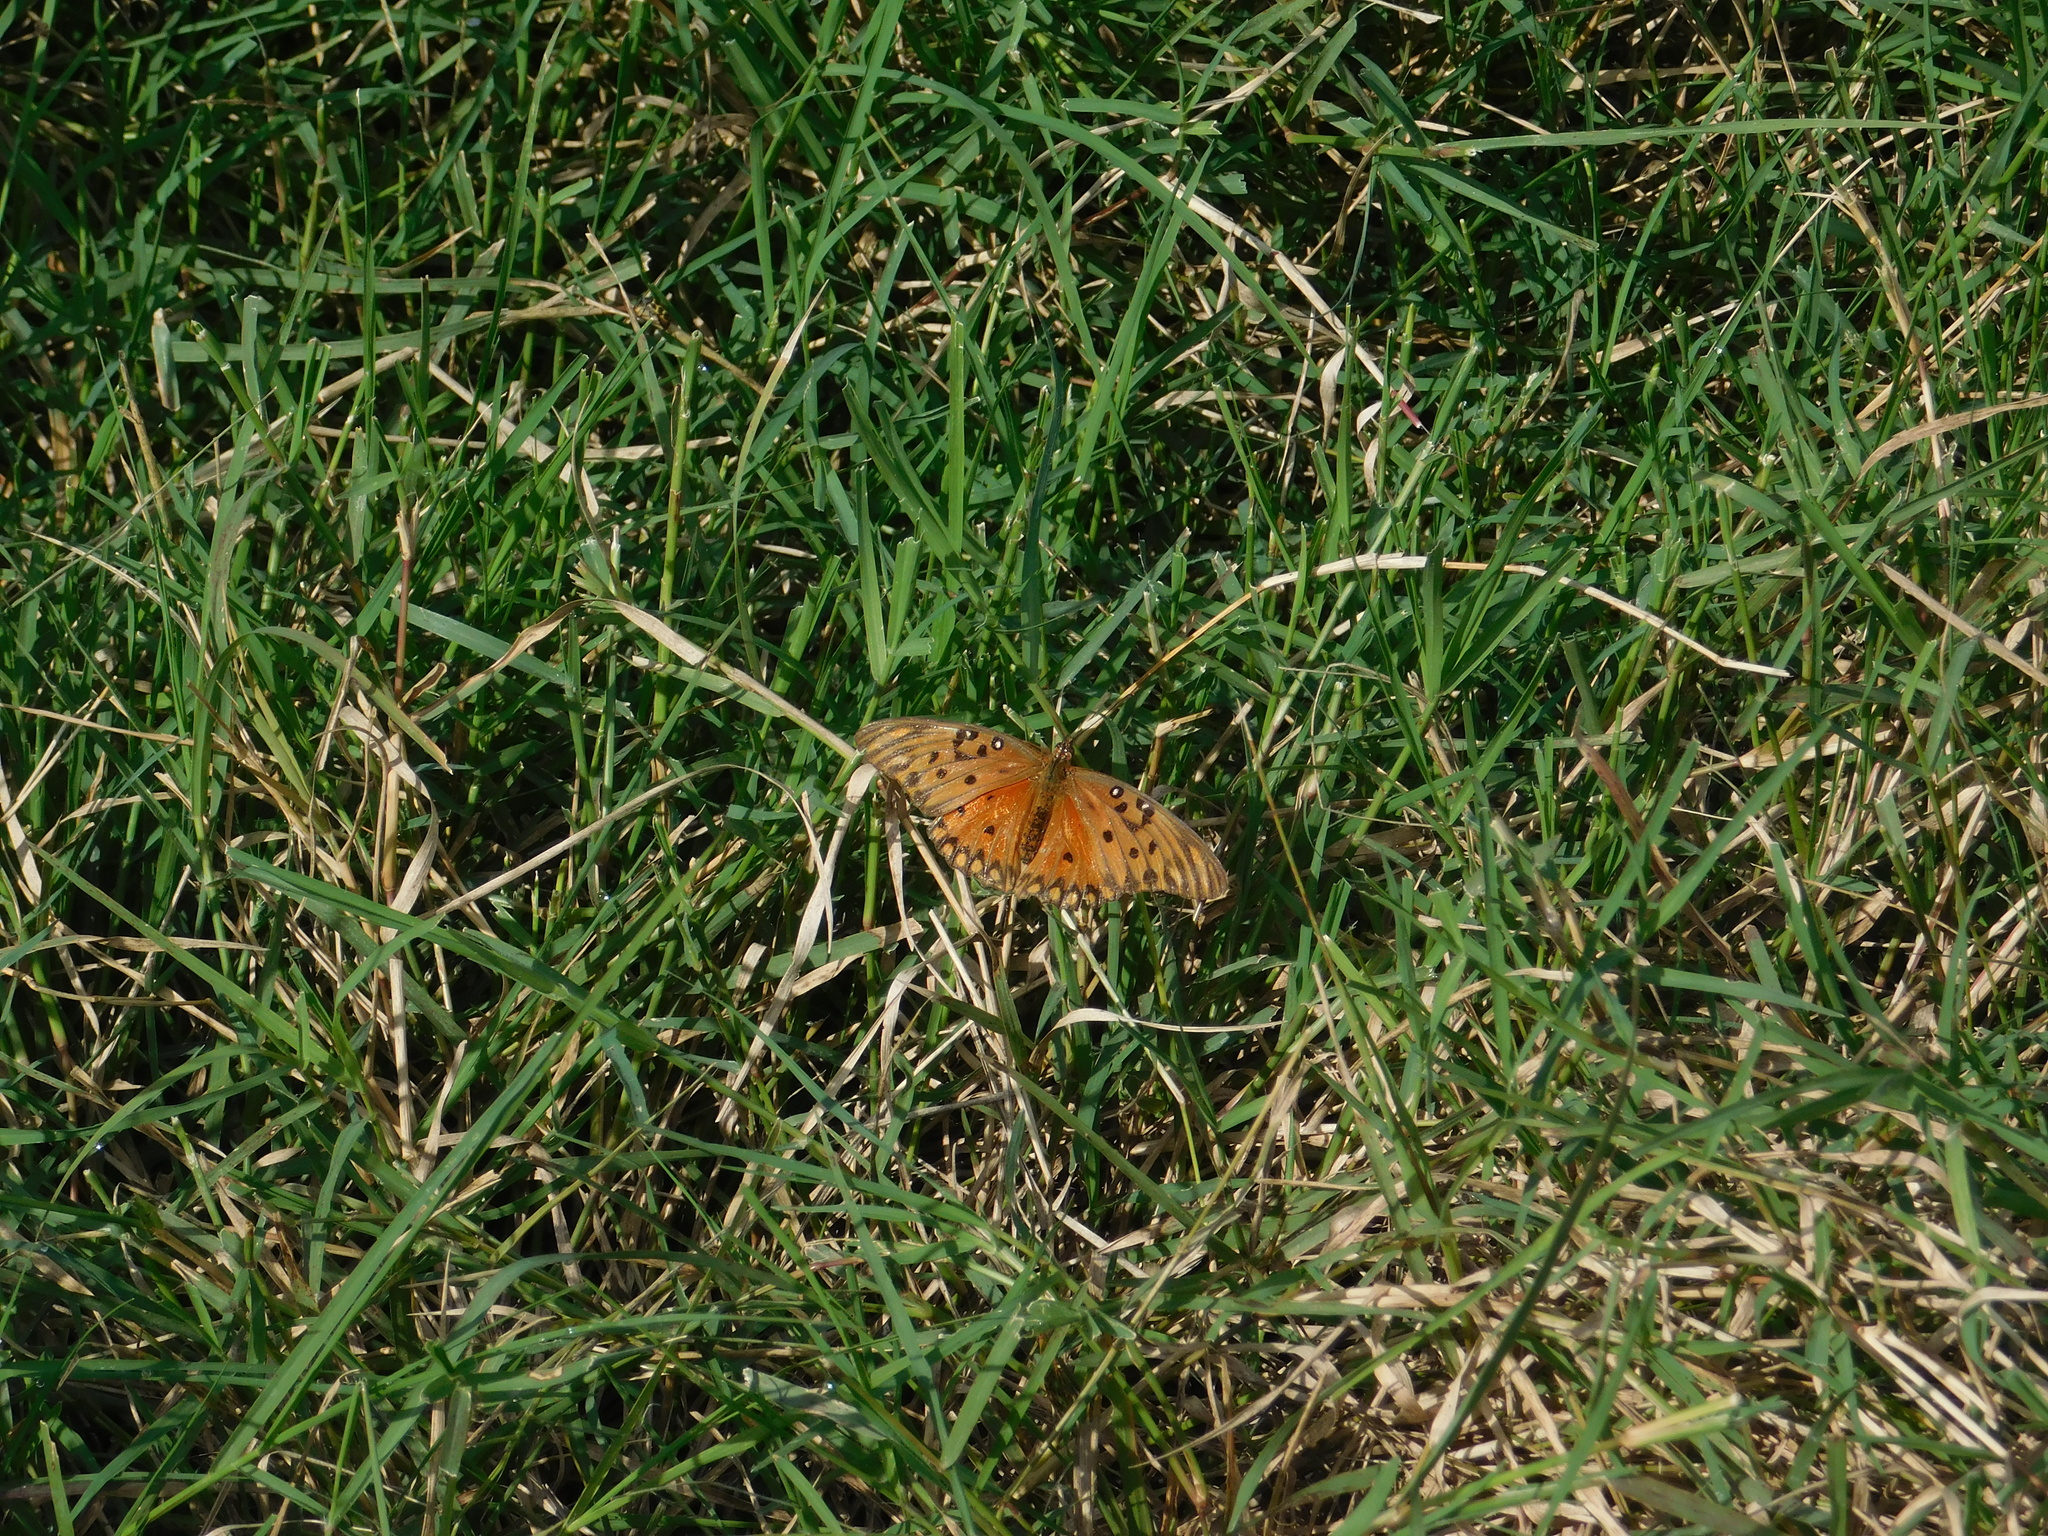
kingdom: Animalia
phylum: Arthropoda
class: Insecta
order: Lepidoptera
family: Nymphalidae
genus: Dione
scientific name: Dione vanillae
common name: Gulf fritillary
